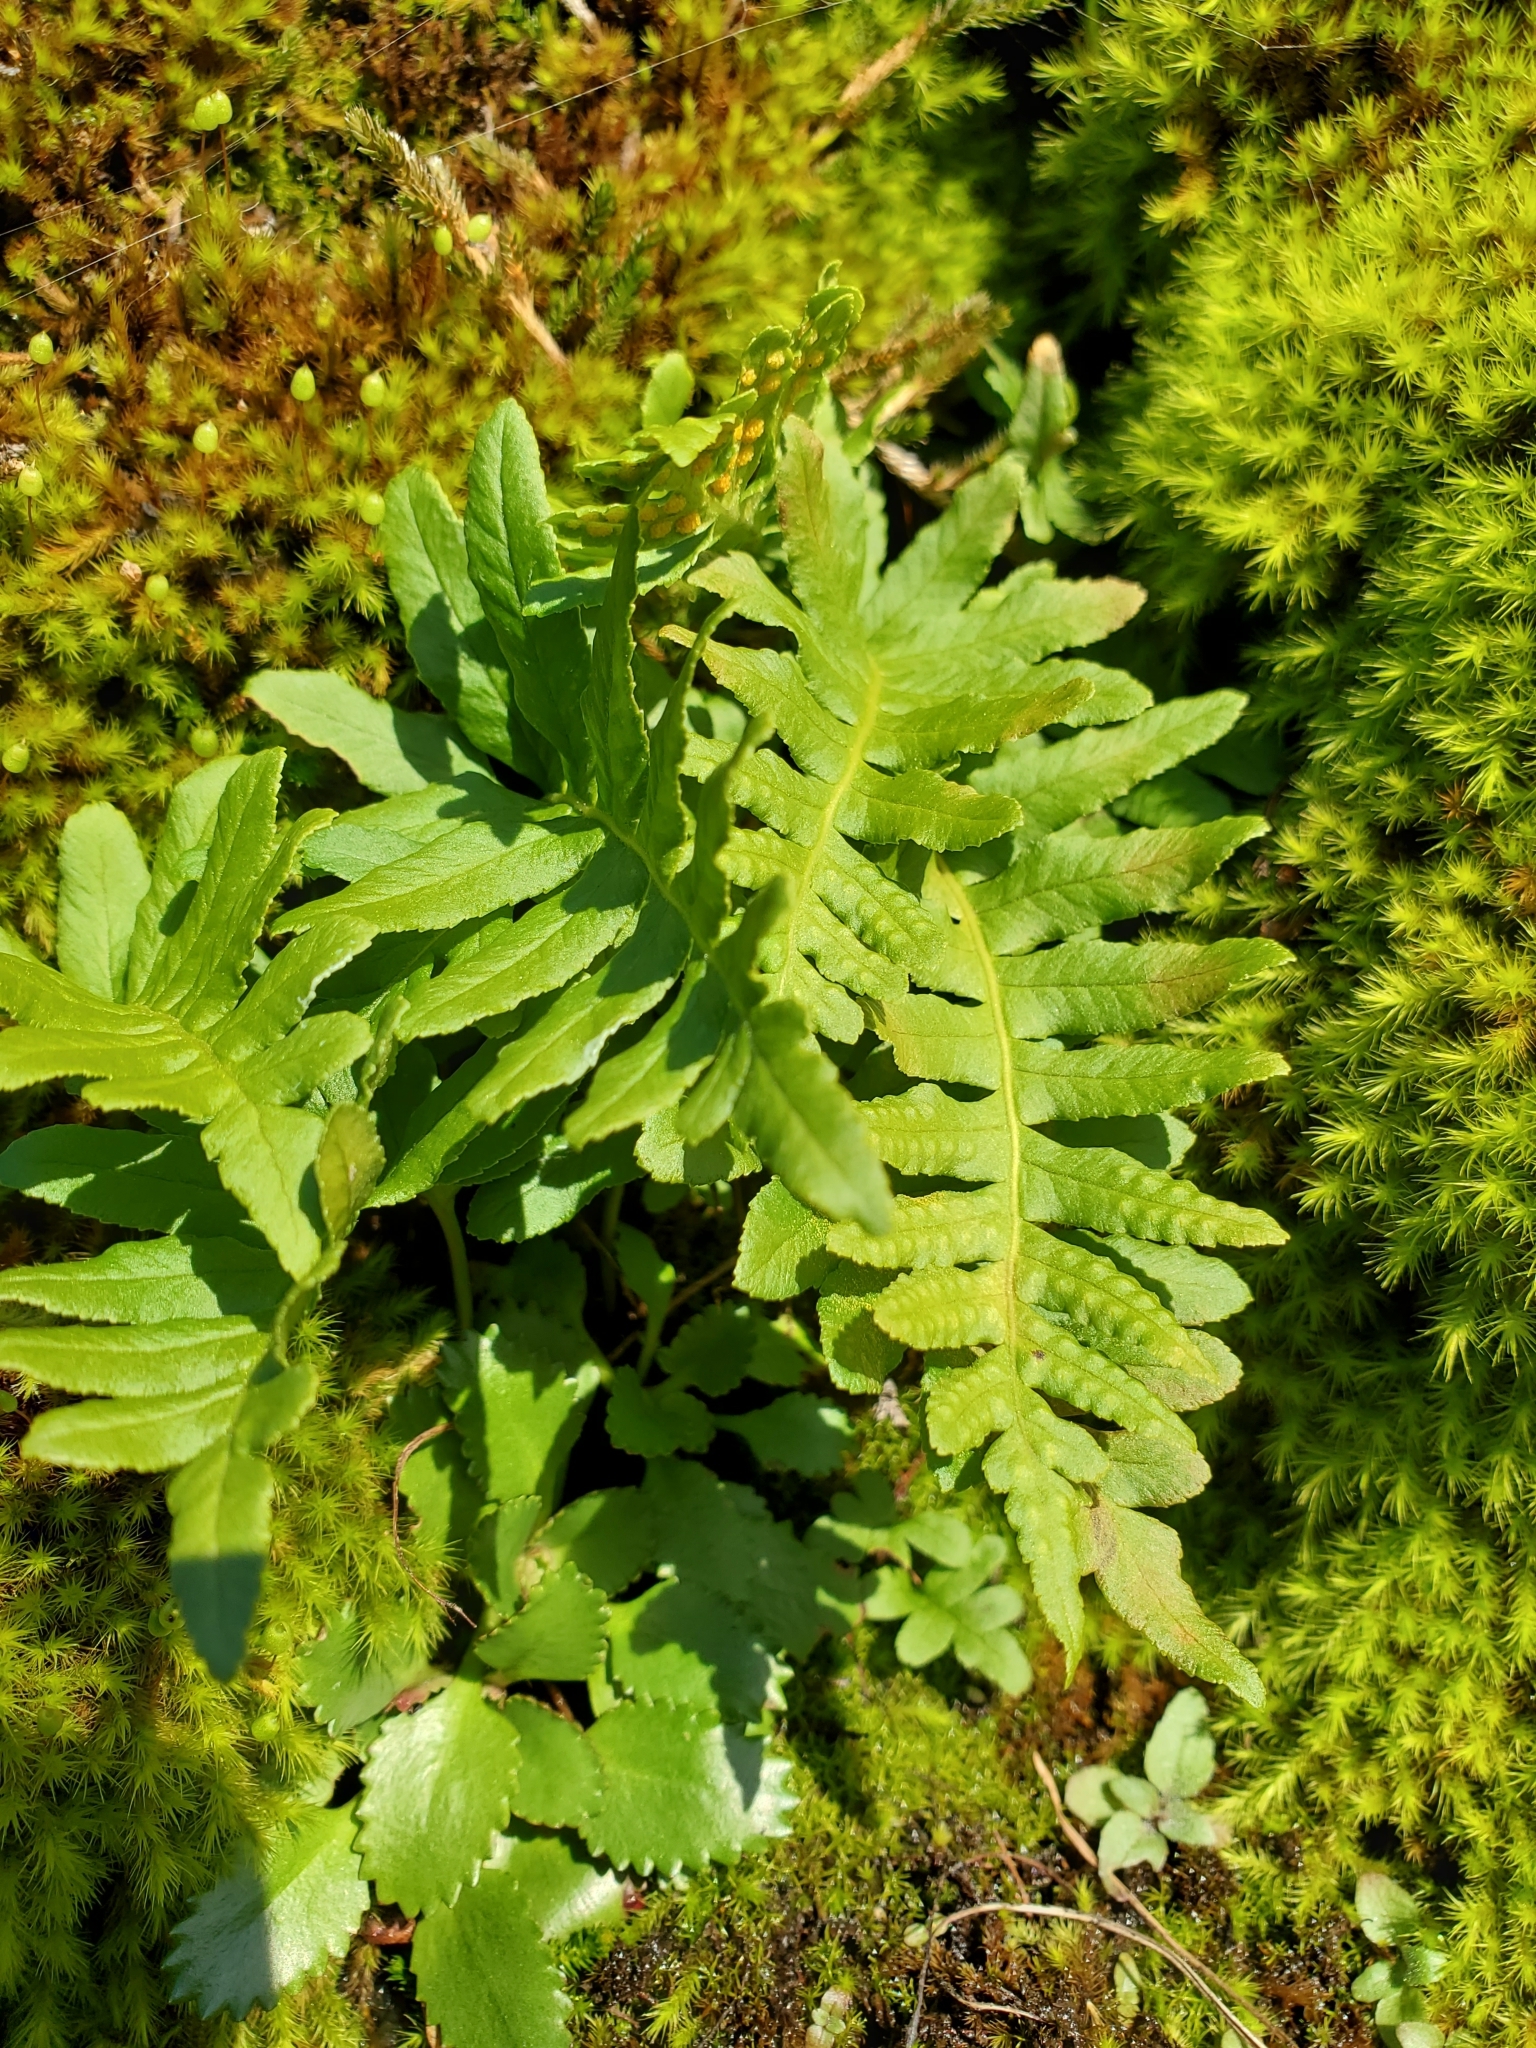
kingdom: Plantae
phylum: Tracheophyta
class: Polypodiopsida
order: Polypodiales
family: Polypodiaceae
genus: Polypodium
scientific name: Polypodium glycyrrhiza
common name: Licorice fern
